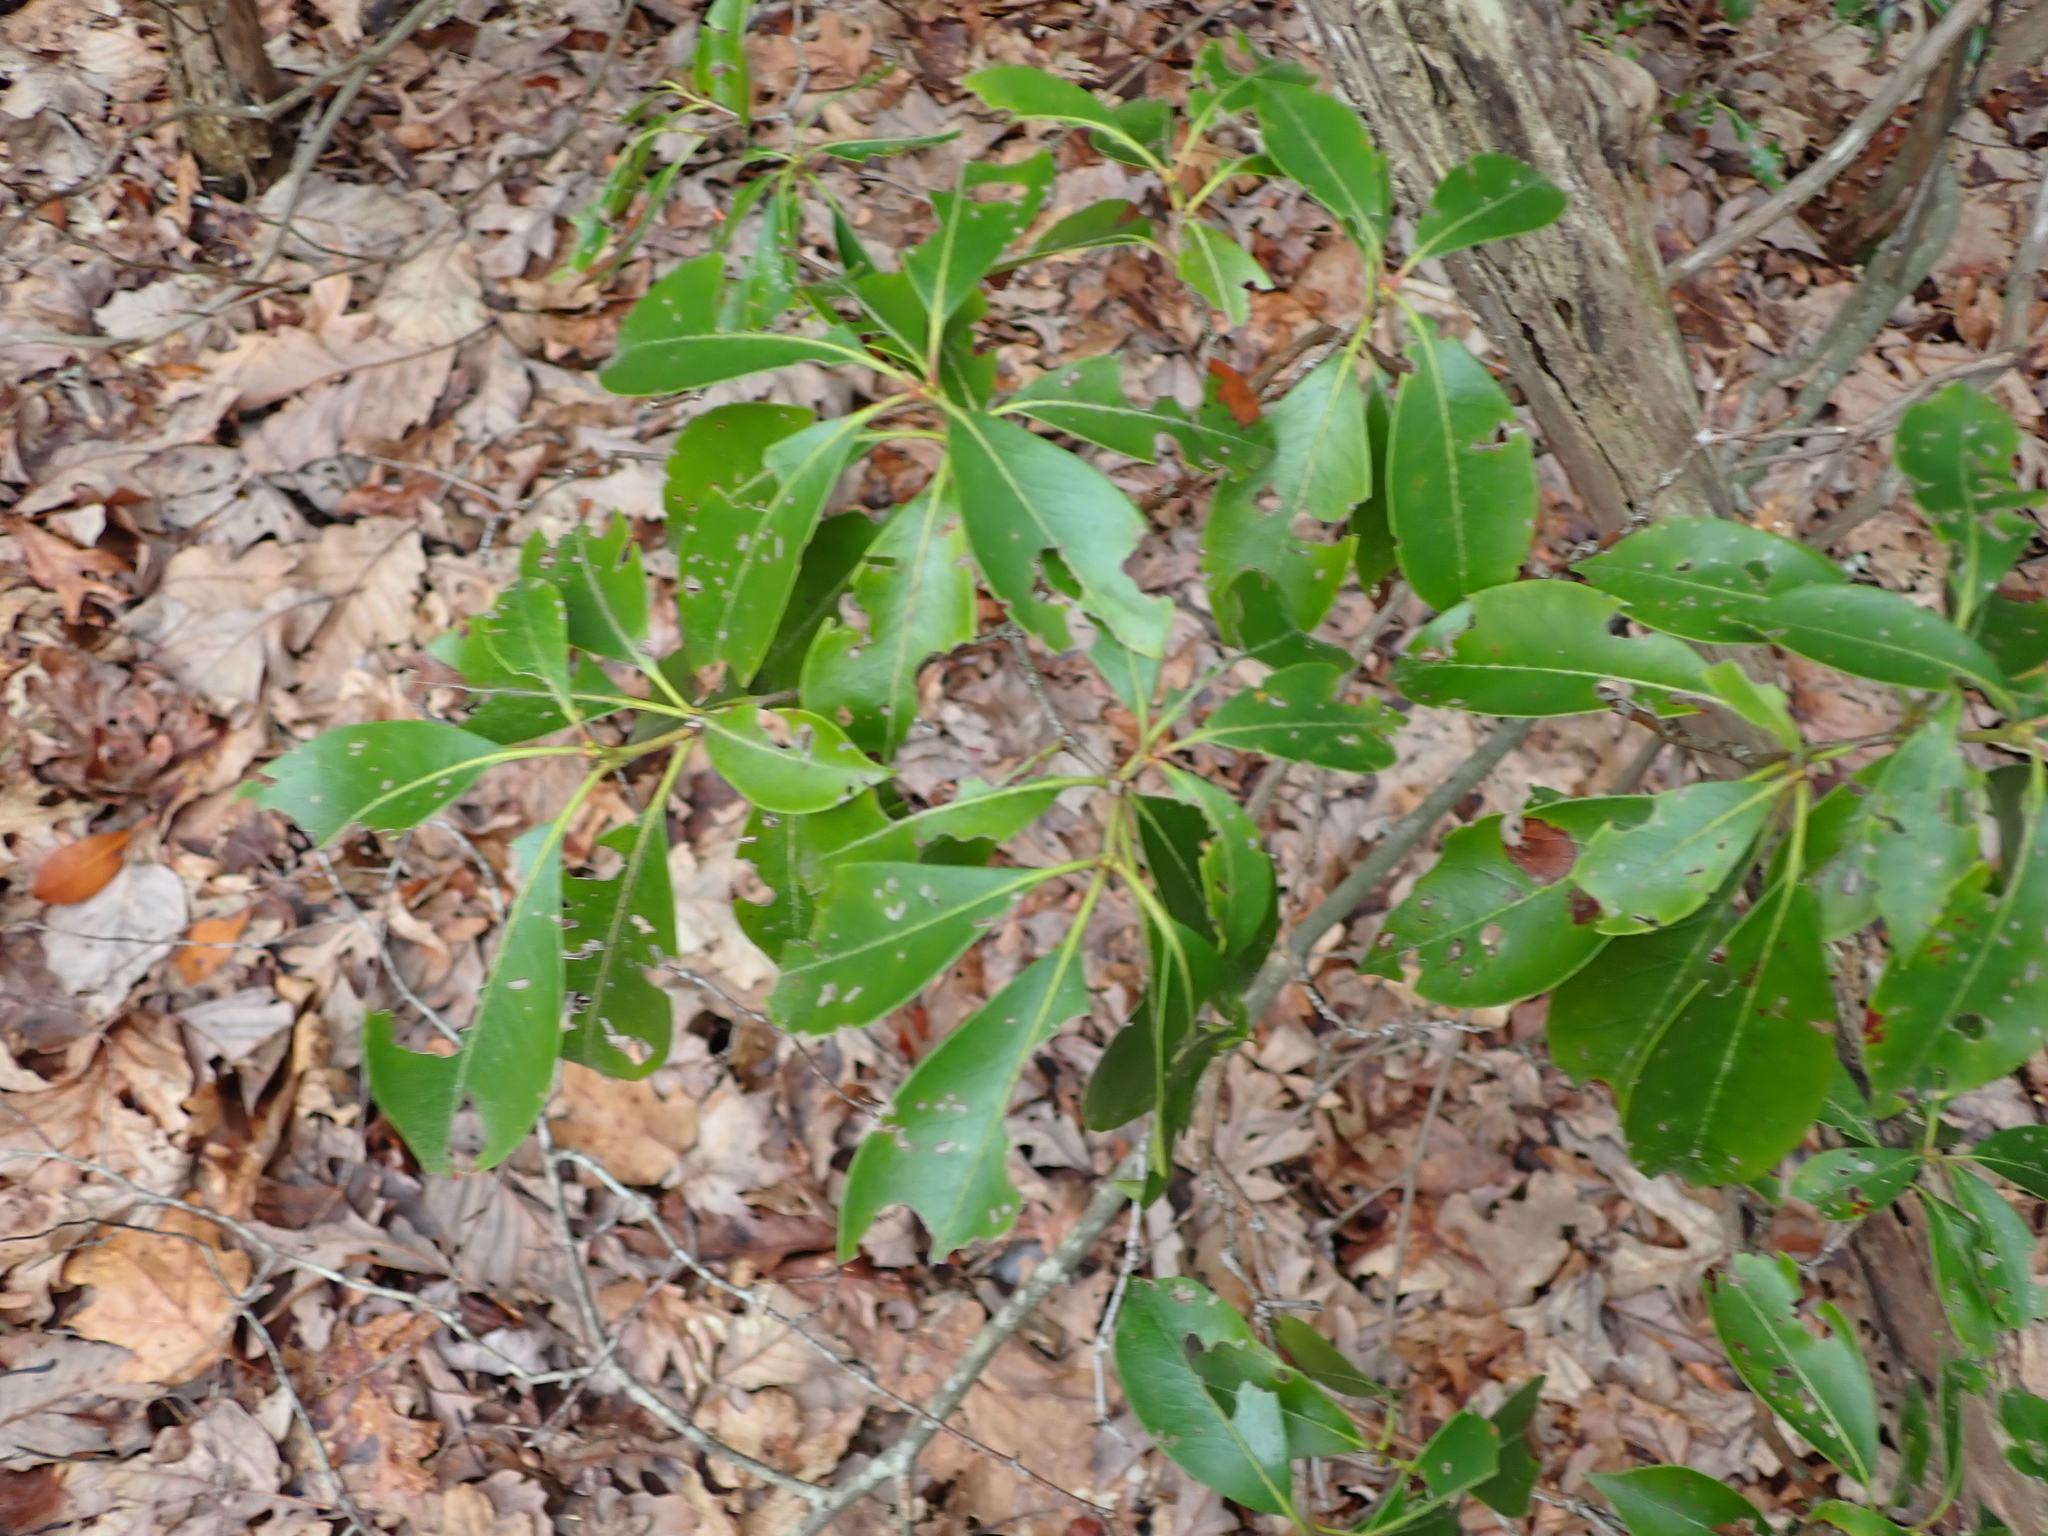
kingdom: Plantae
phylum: Tracheophyta
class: Magnoliopsida
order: Ericales
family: Ericaceae
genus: Kalmia
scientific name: Kalmia latifolia
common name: Mountain-laurel
